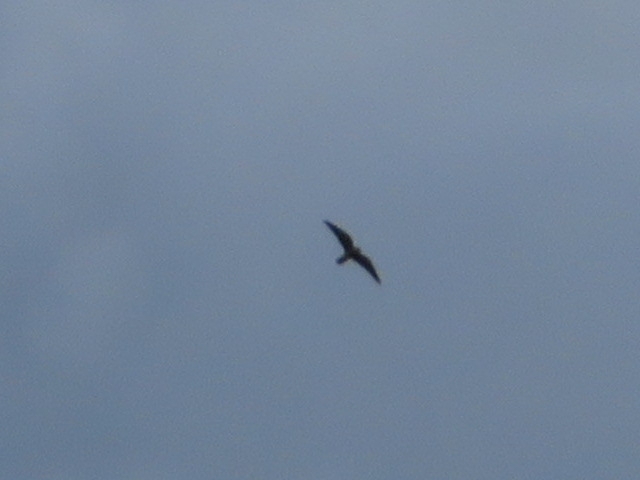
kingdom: Animalia
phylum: Chordata
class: Aves
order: Falconiformes
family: Falconidae
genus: Falco
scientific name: Falco subbuteo
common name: Eurasian hobby
